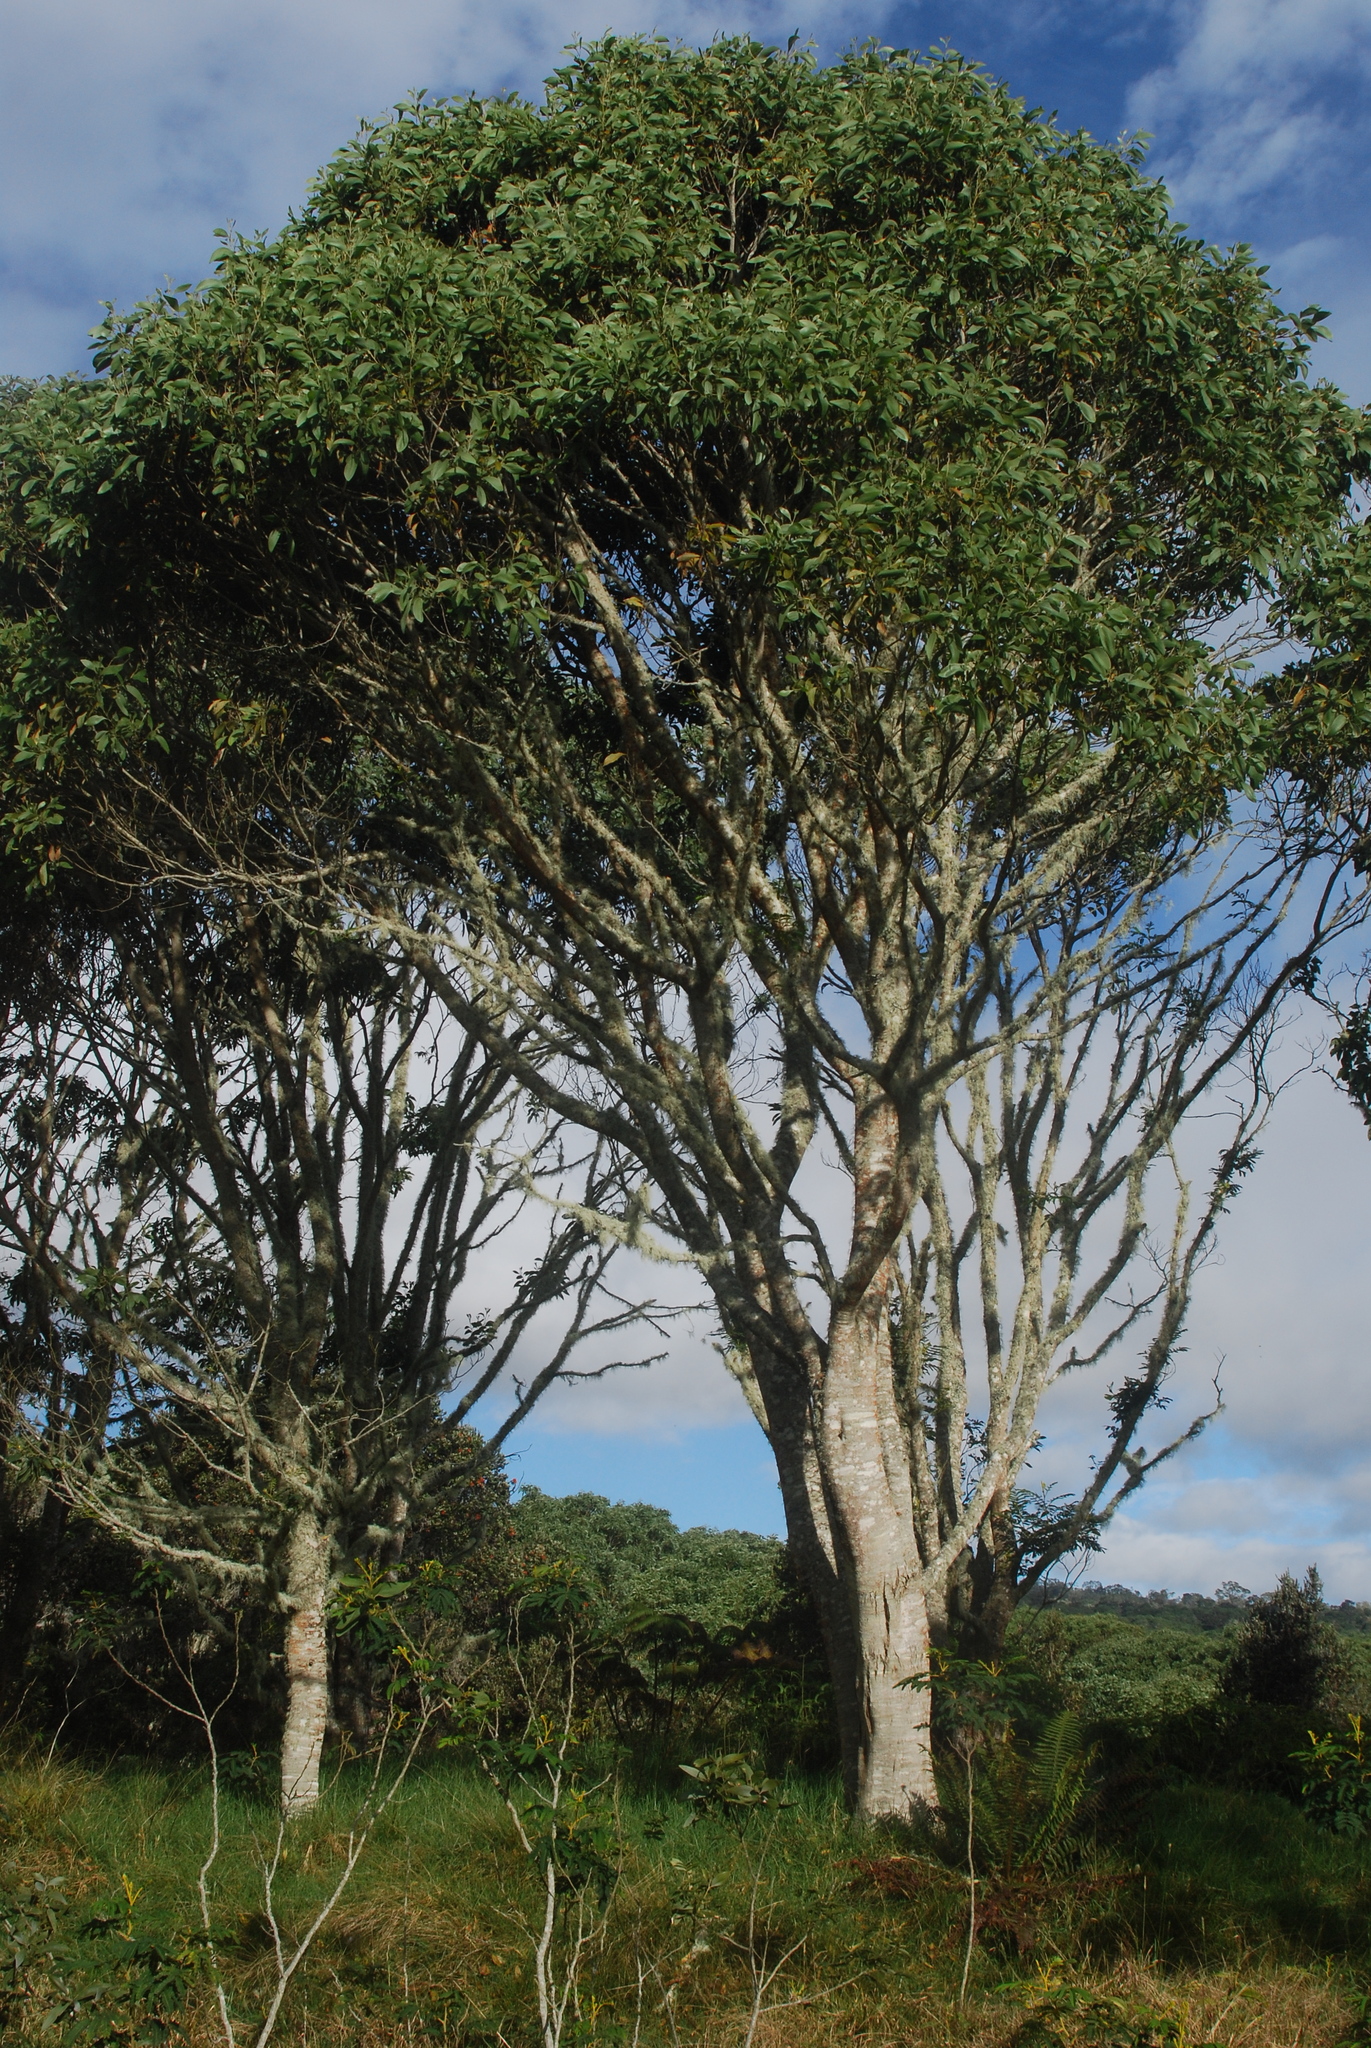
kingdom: Plantae
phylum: Tracheophyta
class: Magnoliopsida
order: Fabales
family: Fabaceae
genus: Acacia
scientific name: Acacia koa
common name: Gray koa
